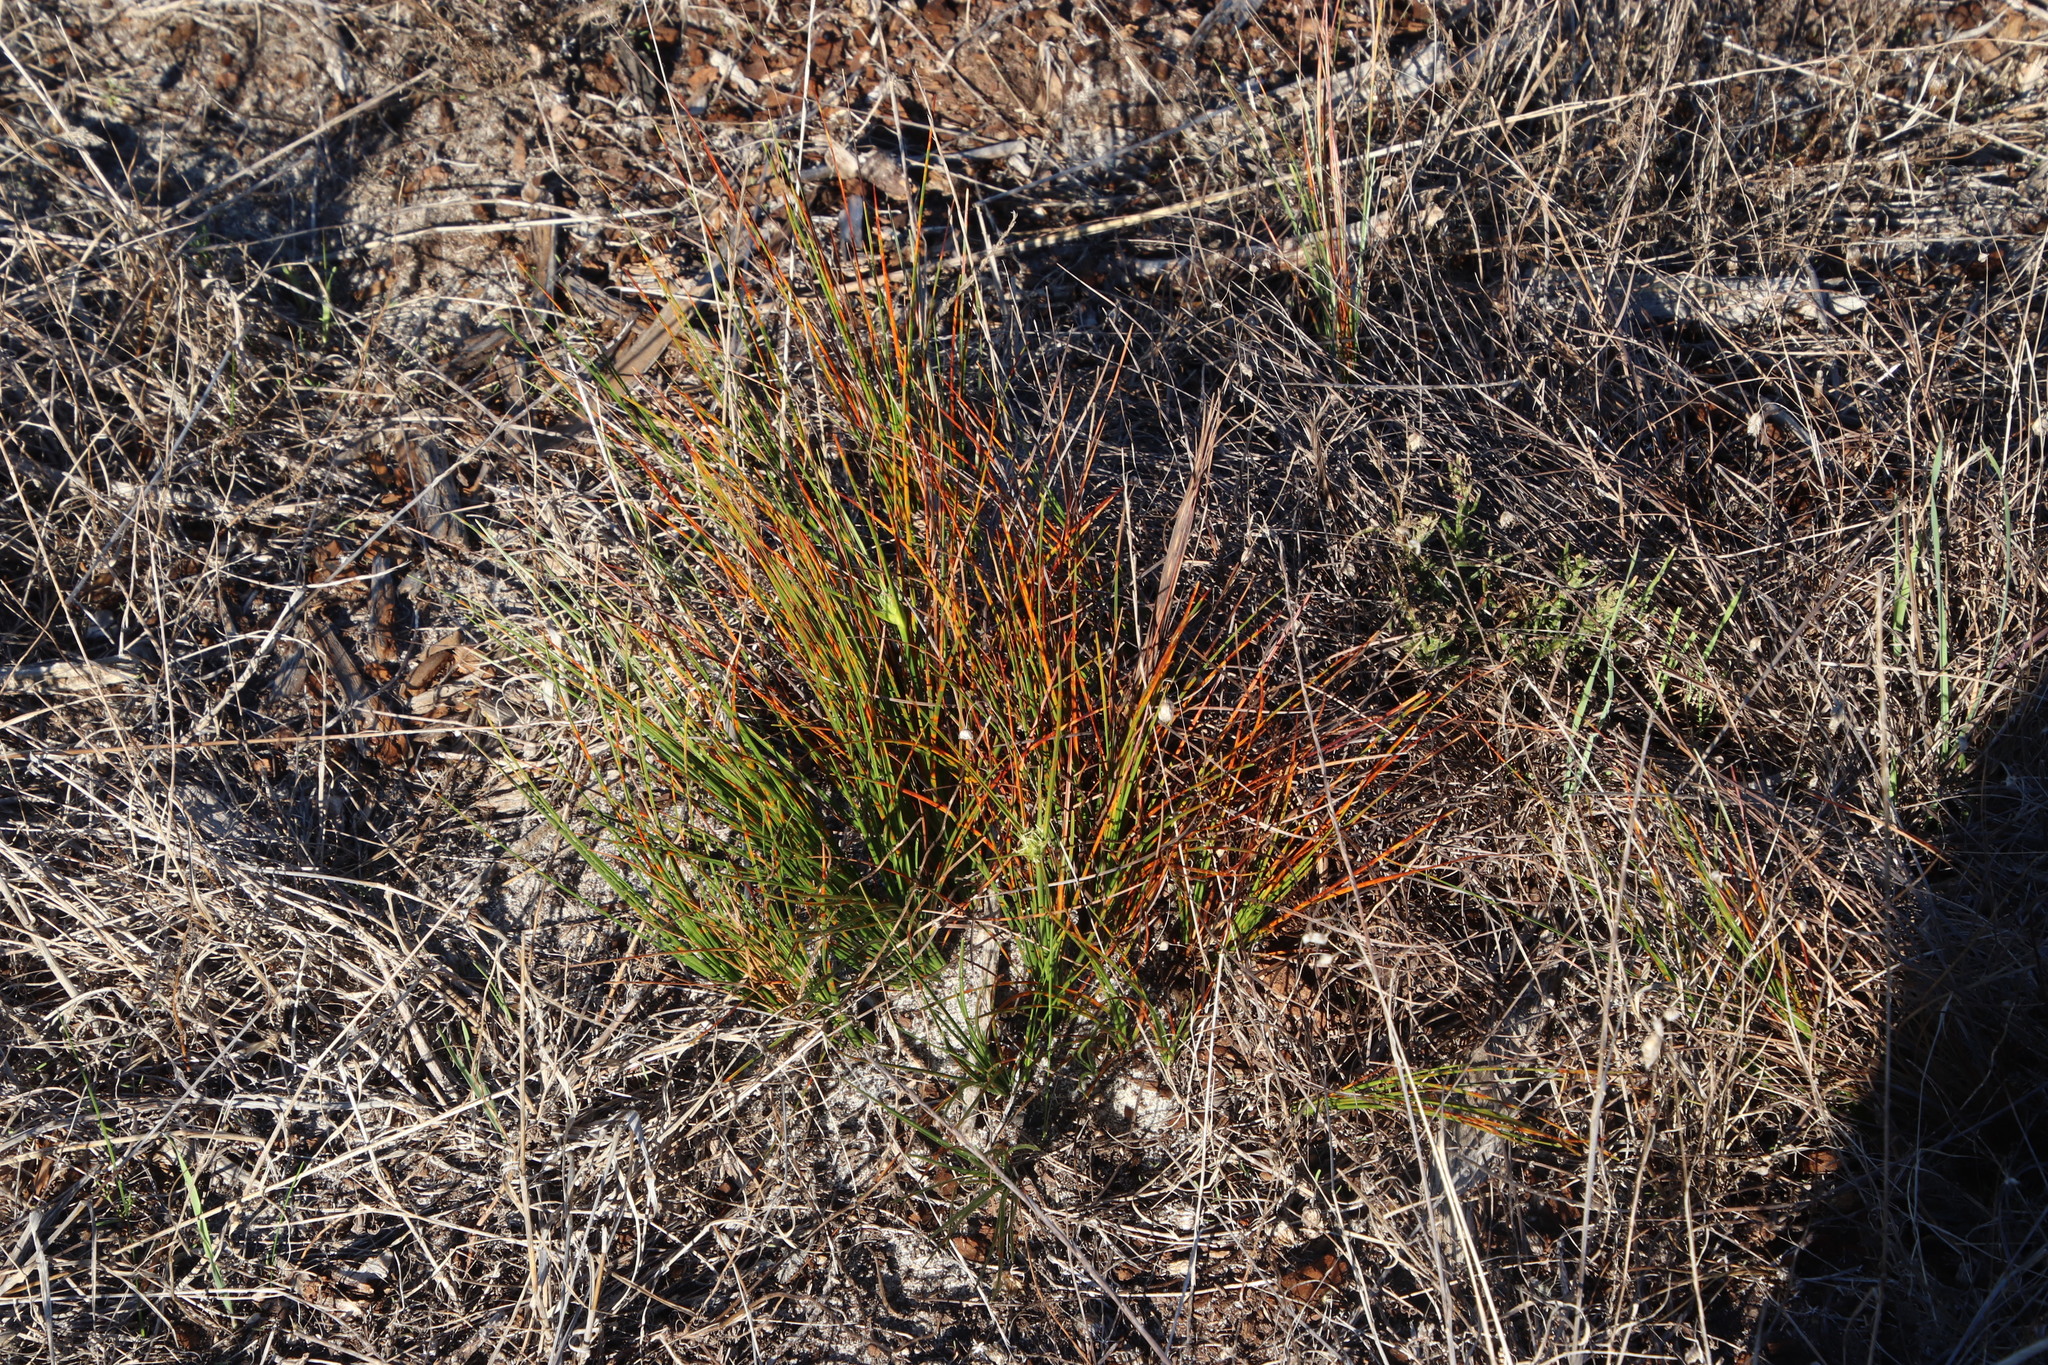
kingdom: Plantae
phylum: Tracheophyta
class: Liliopsida
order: Poales
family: Cyperaceae
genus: Ficinia
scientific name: Ficinia nigrescens
